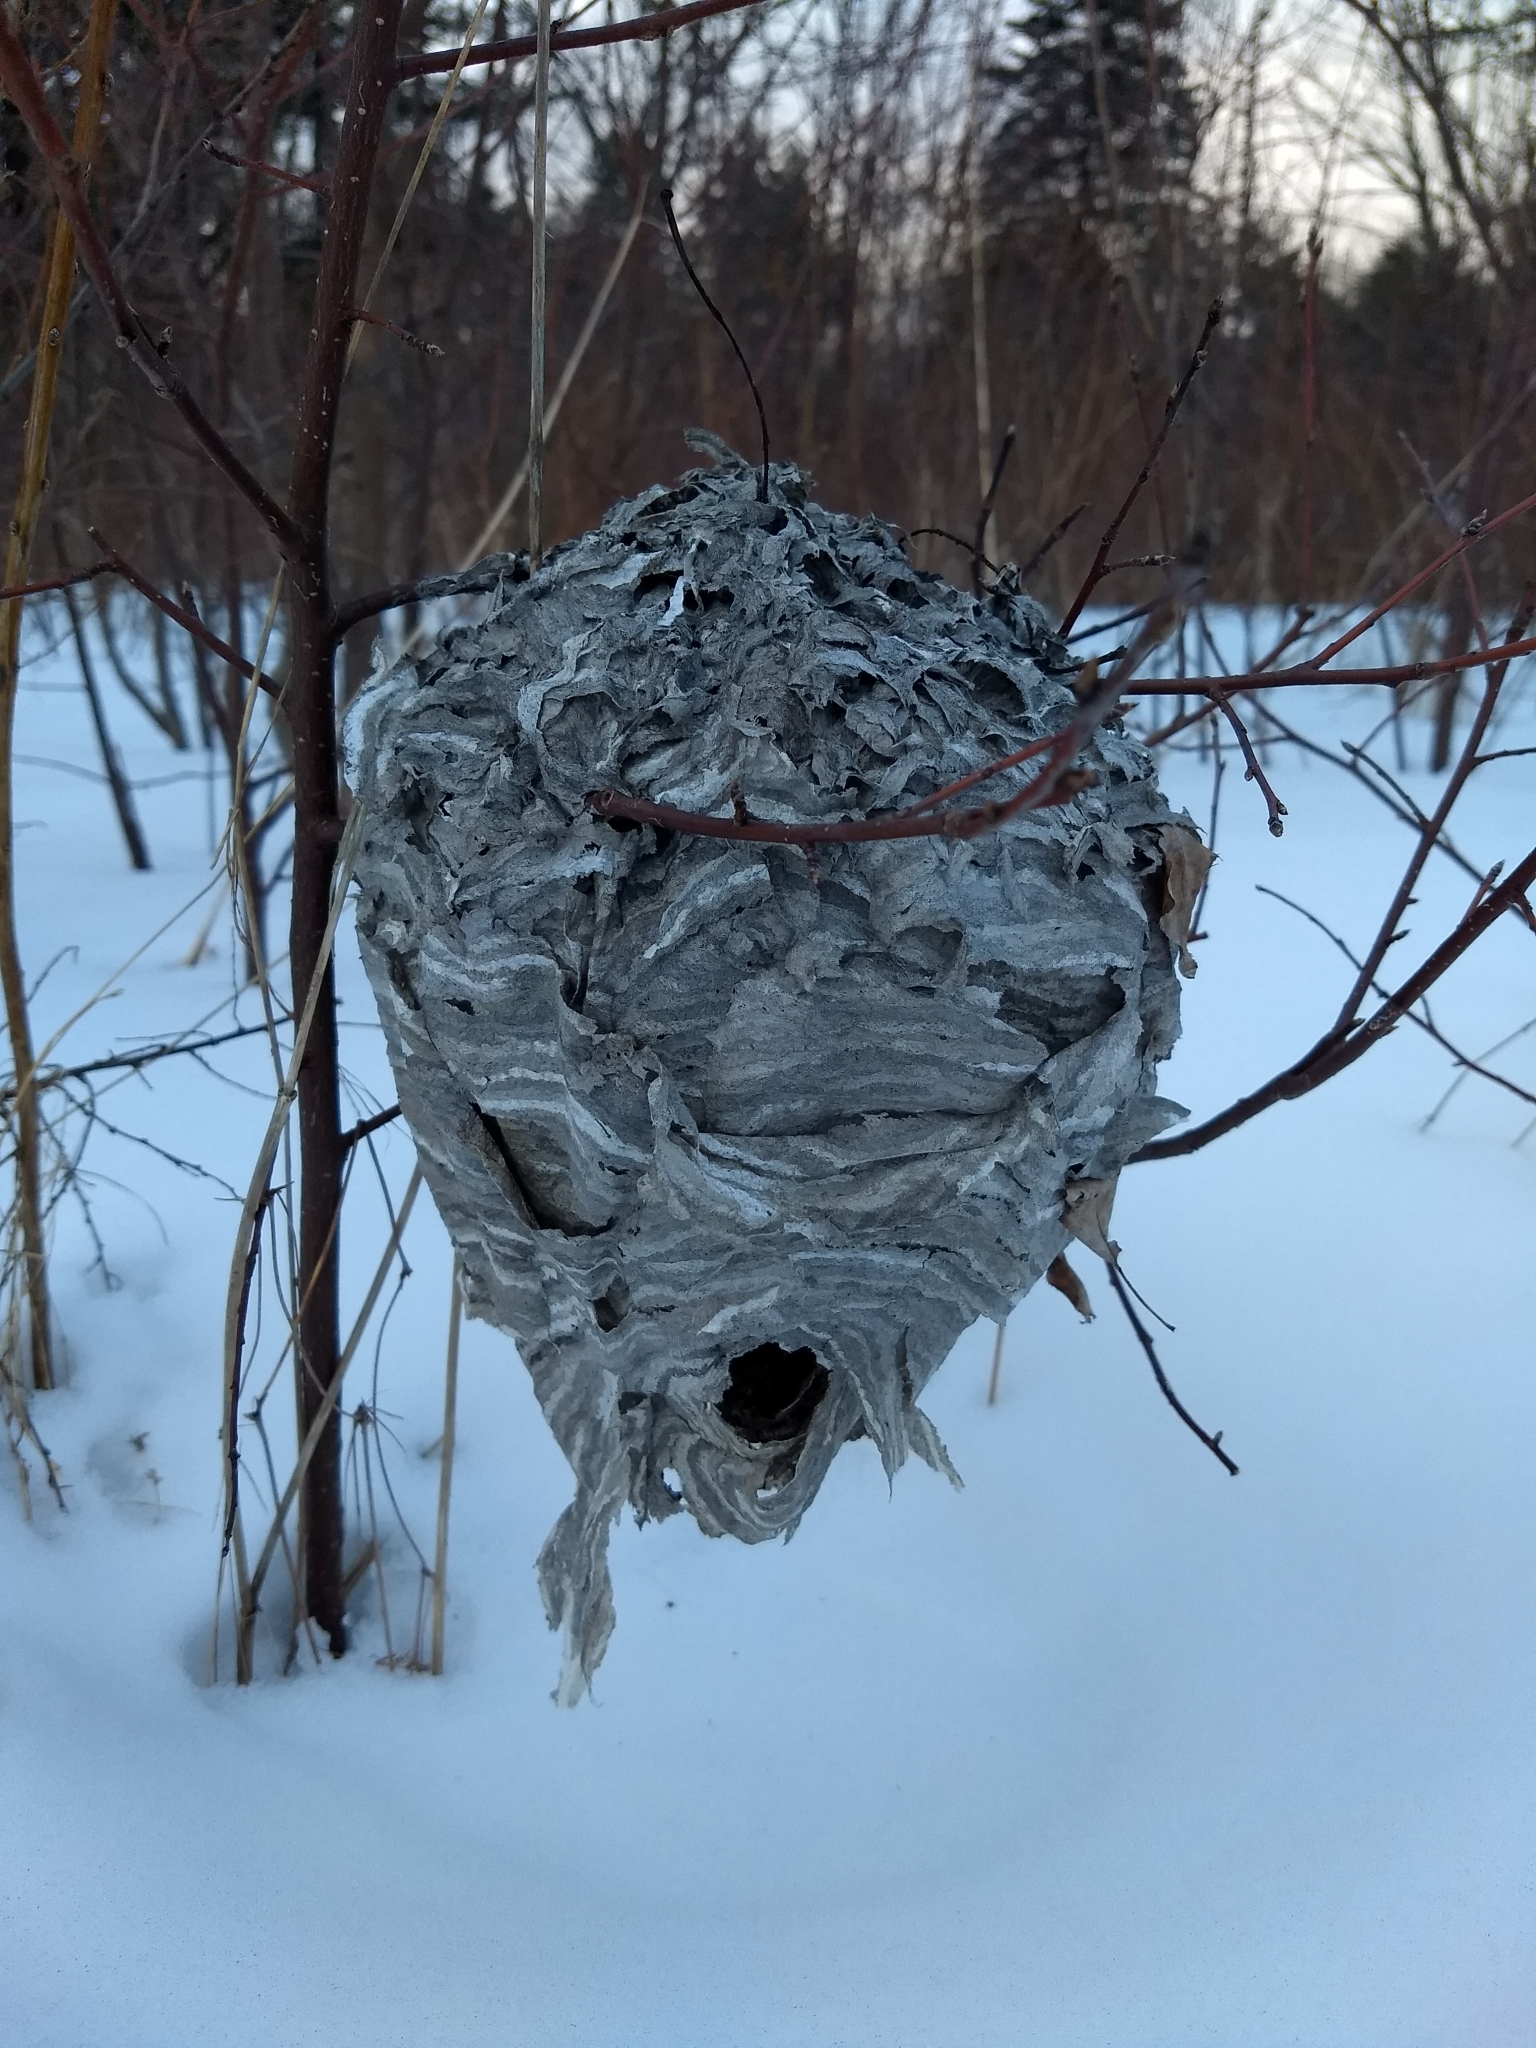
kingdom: Animalia
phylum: Arthropoda
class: Insecta
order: Hymenoptera
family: Vespidae
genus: Dolichovespula
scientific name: Dolichovespula maculata
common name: Bald-faced hornet
